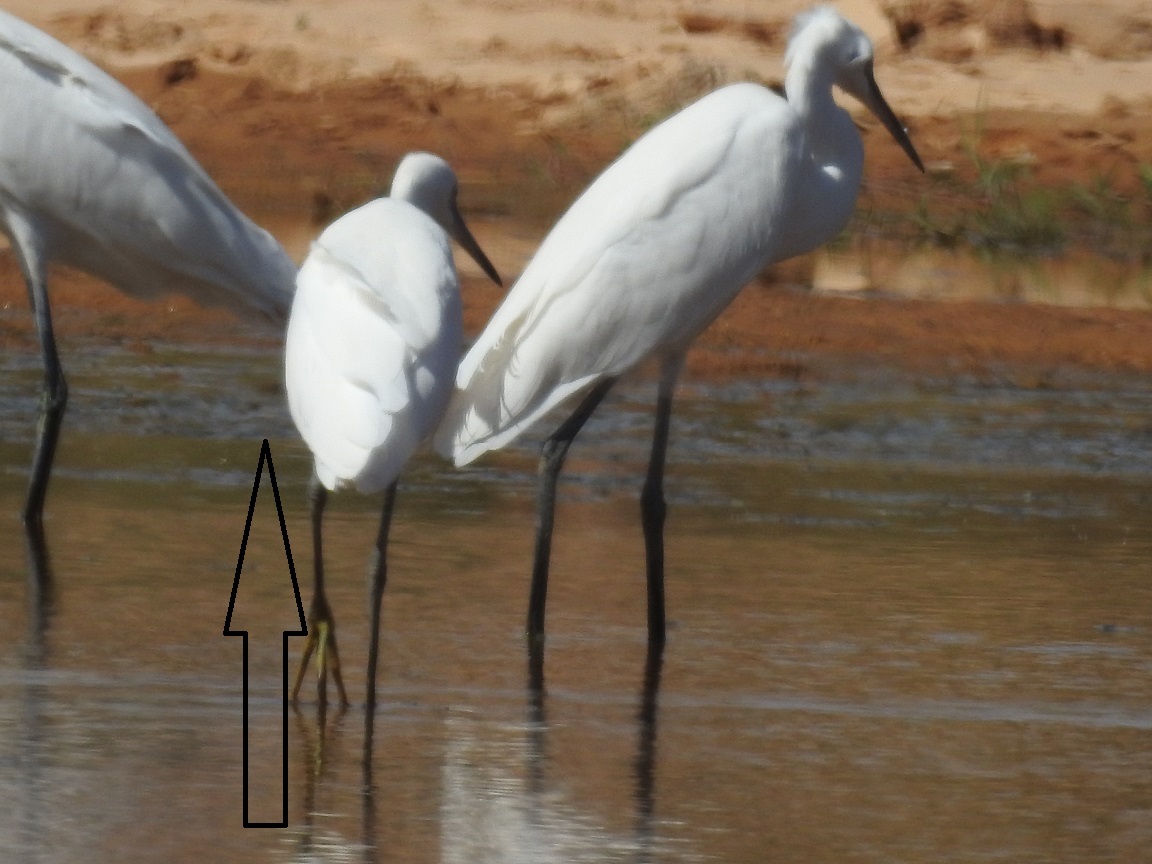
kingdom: Animalia
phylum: Chordata
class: Aves
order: Pelecaniformes
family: Ardeidae
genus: Egretta
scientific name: Egretta garzetta
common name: Little egret
